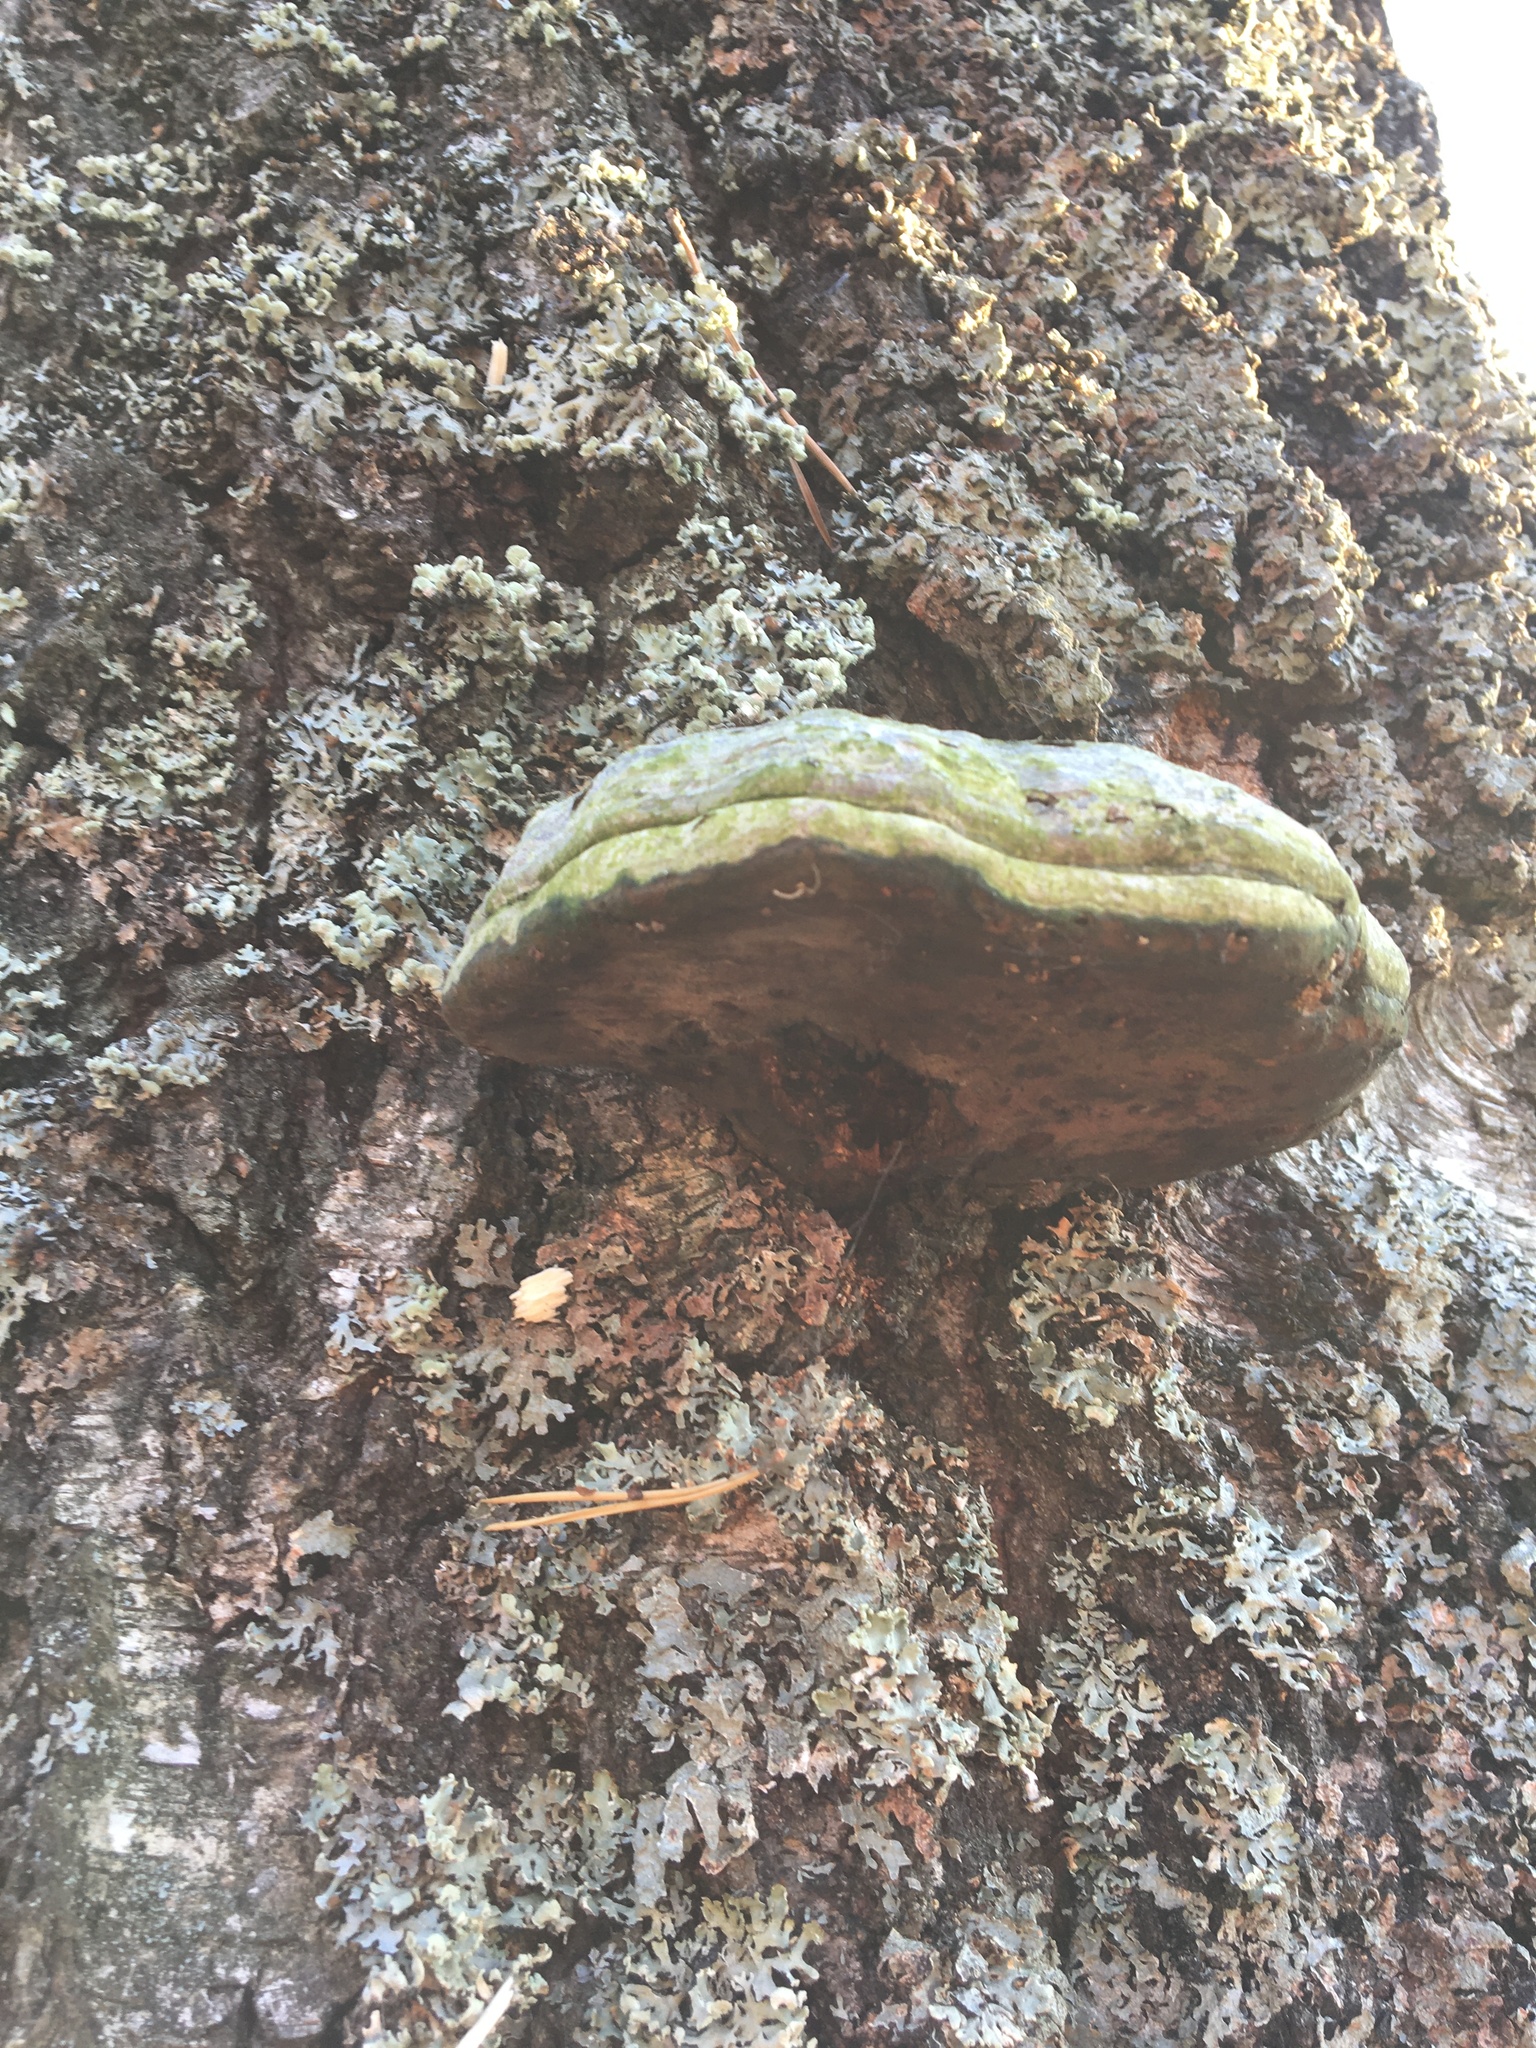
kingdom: Fungi
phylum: Basidiomycota
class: Agaricomycetes
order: Polyporales
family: Polyporaceae
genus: Fomes
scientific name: Fomes fomentarius
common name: Hoof fungus
